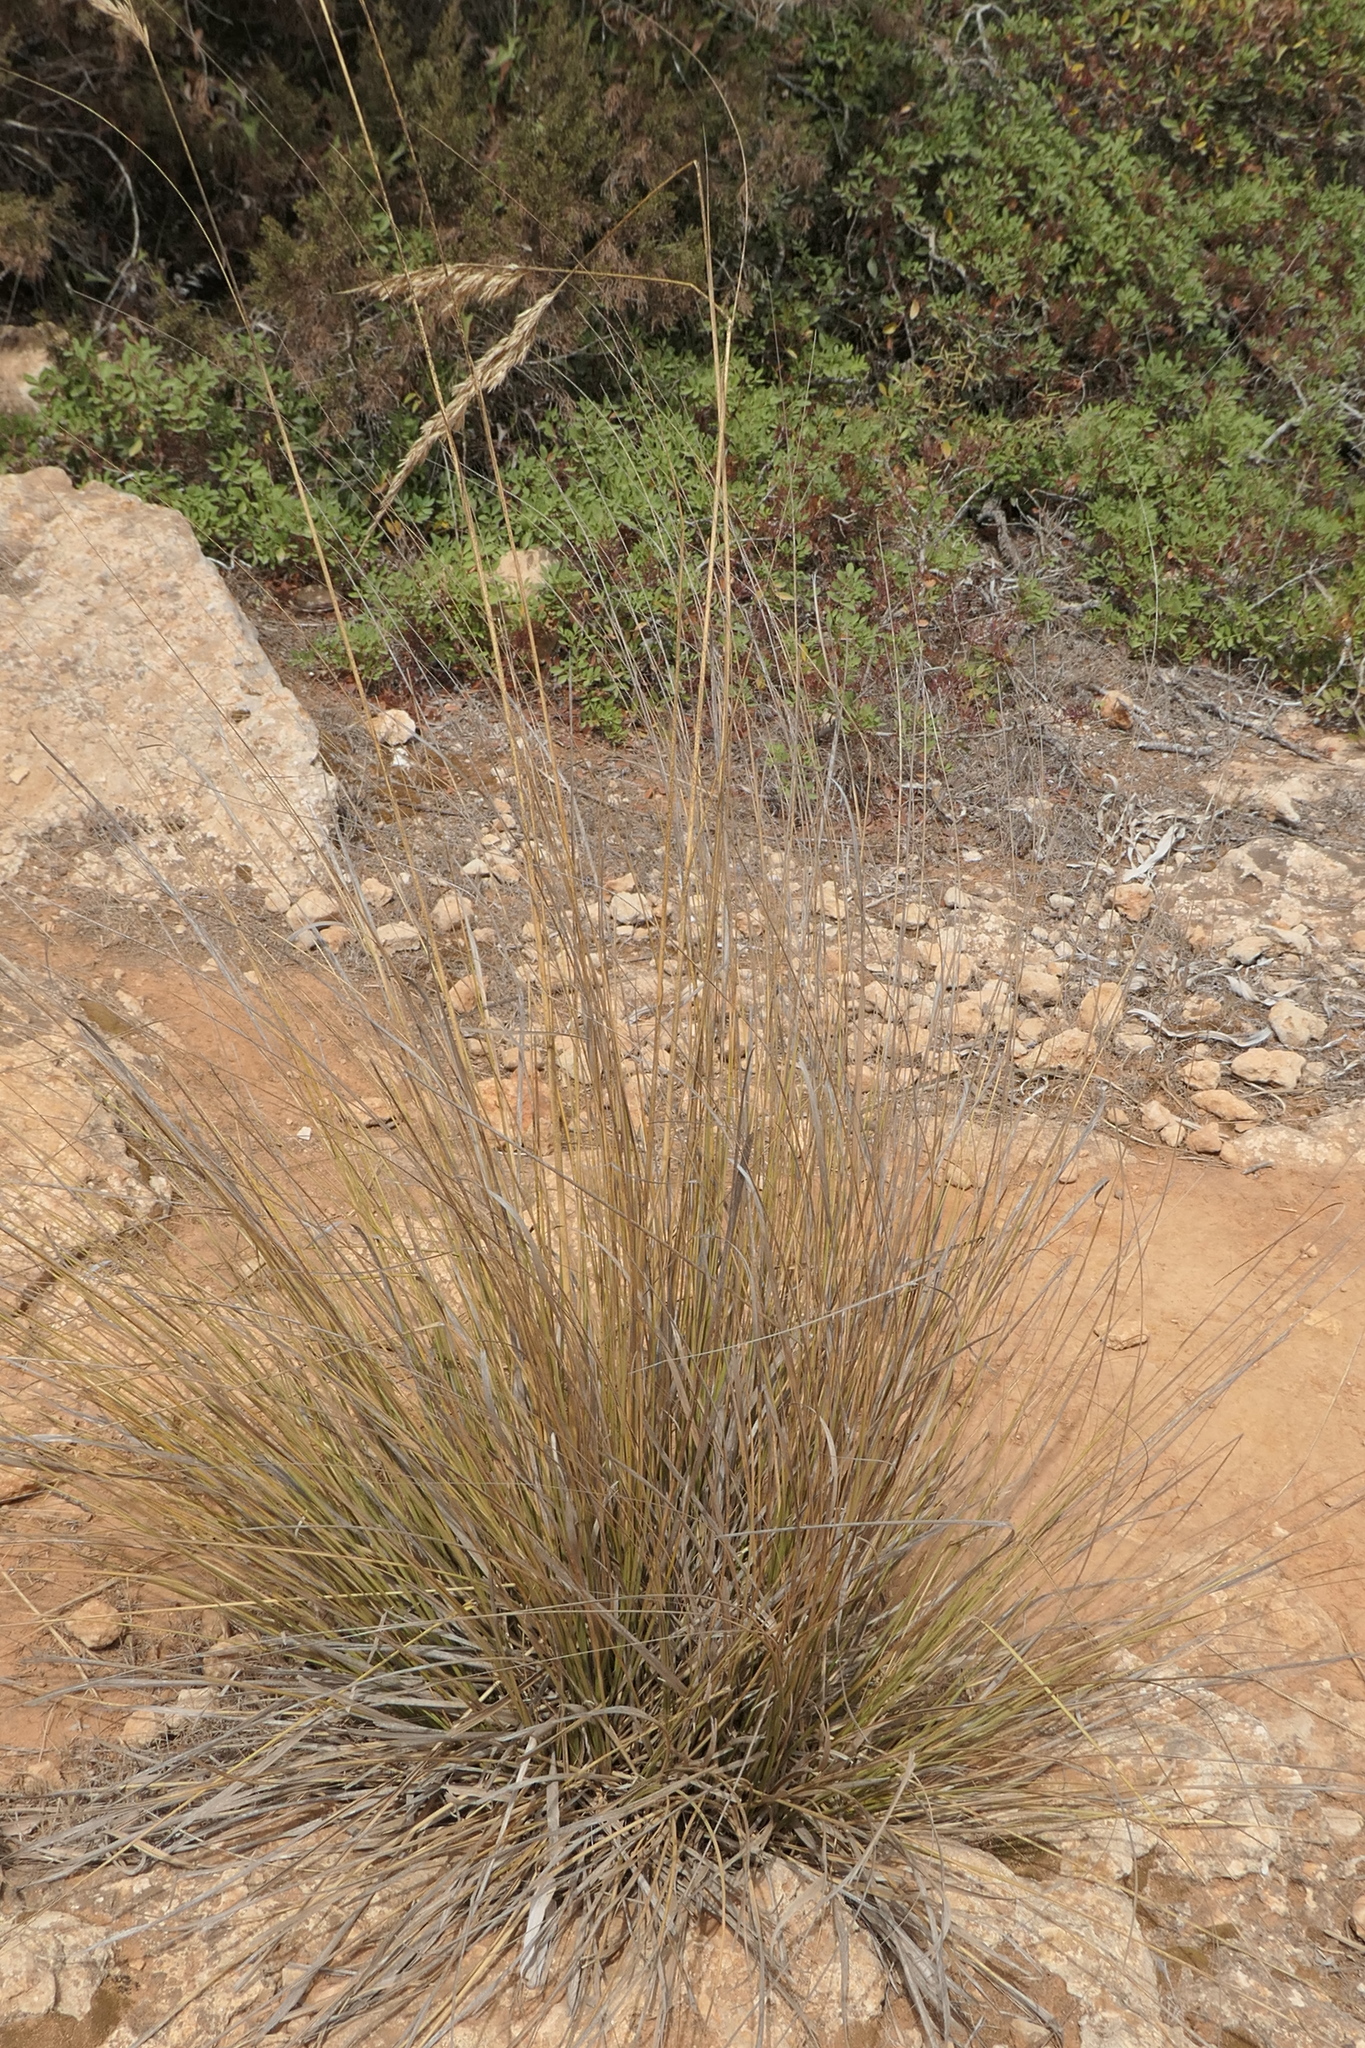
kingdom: Plantae
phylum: Tracheophyta
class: Liliopsida
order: Poales
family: Poaceae
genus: Ampelodesmos
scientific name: Ampelodesmos mauritanicus
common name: Mauritanian grass
